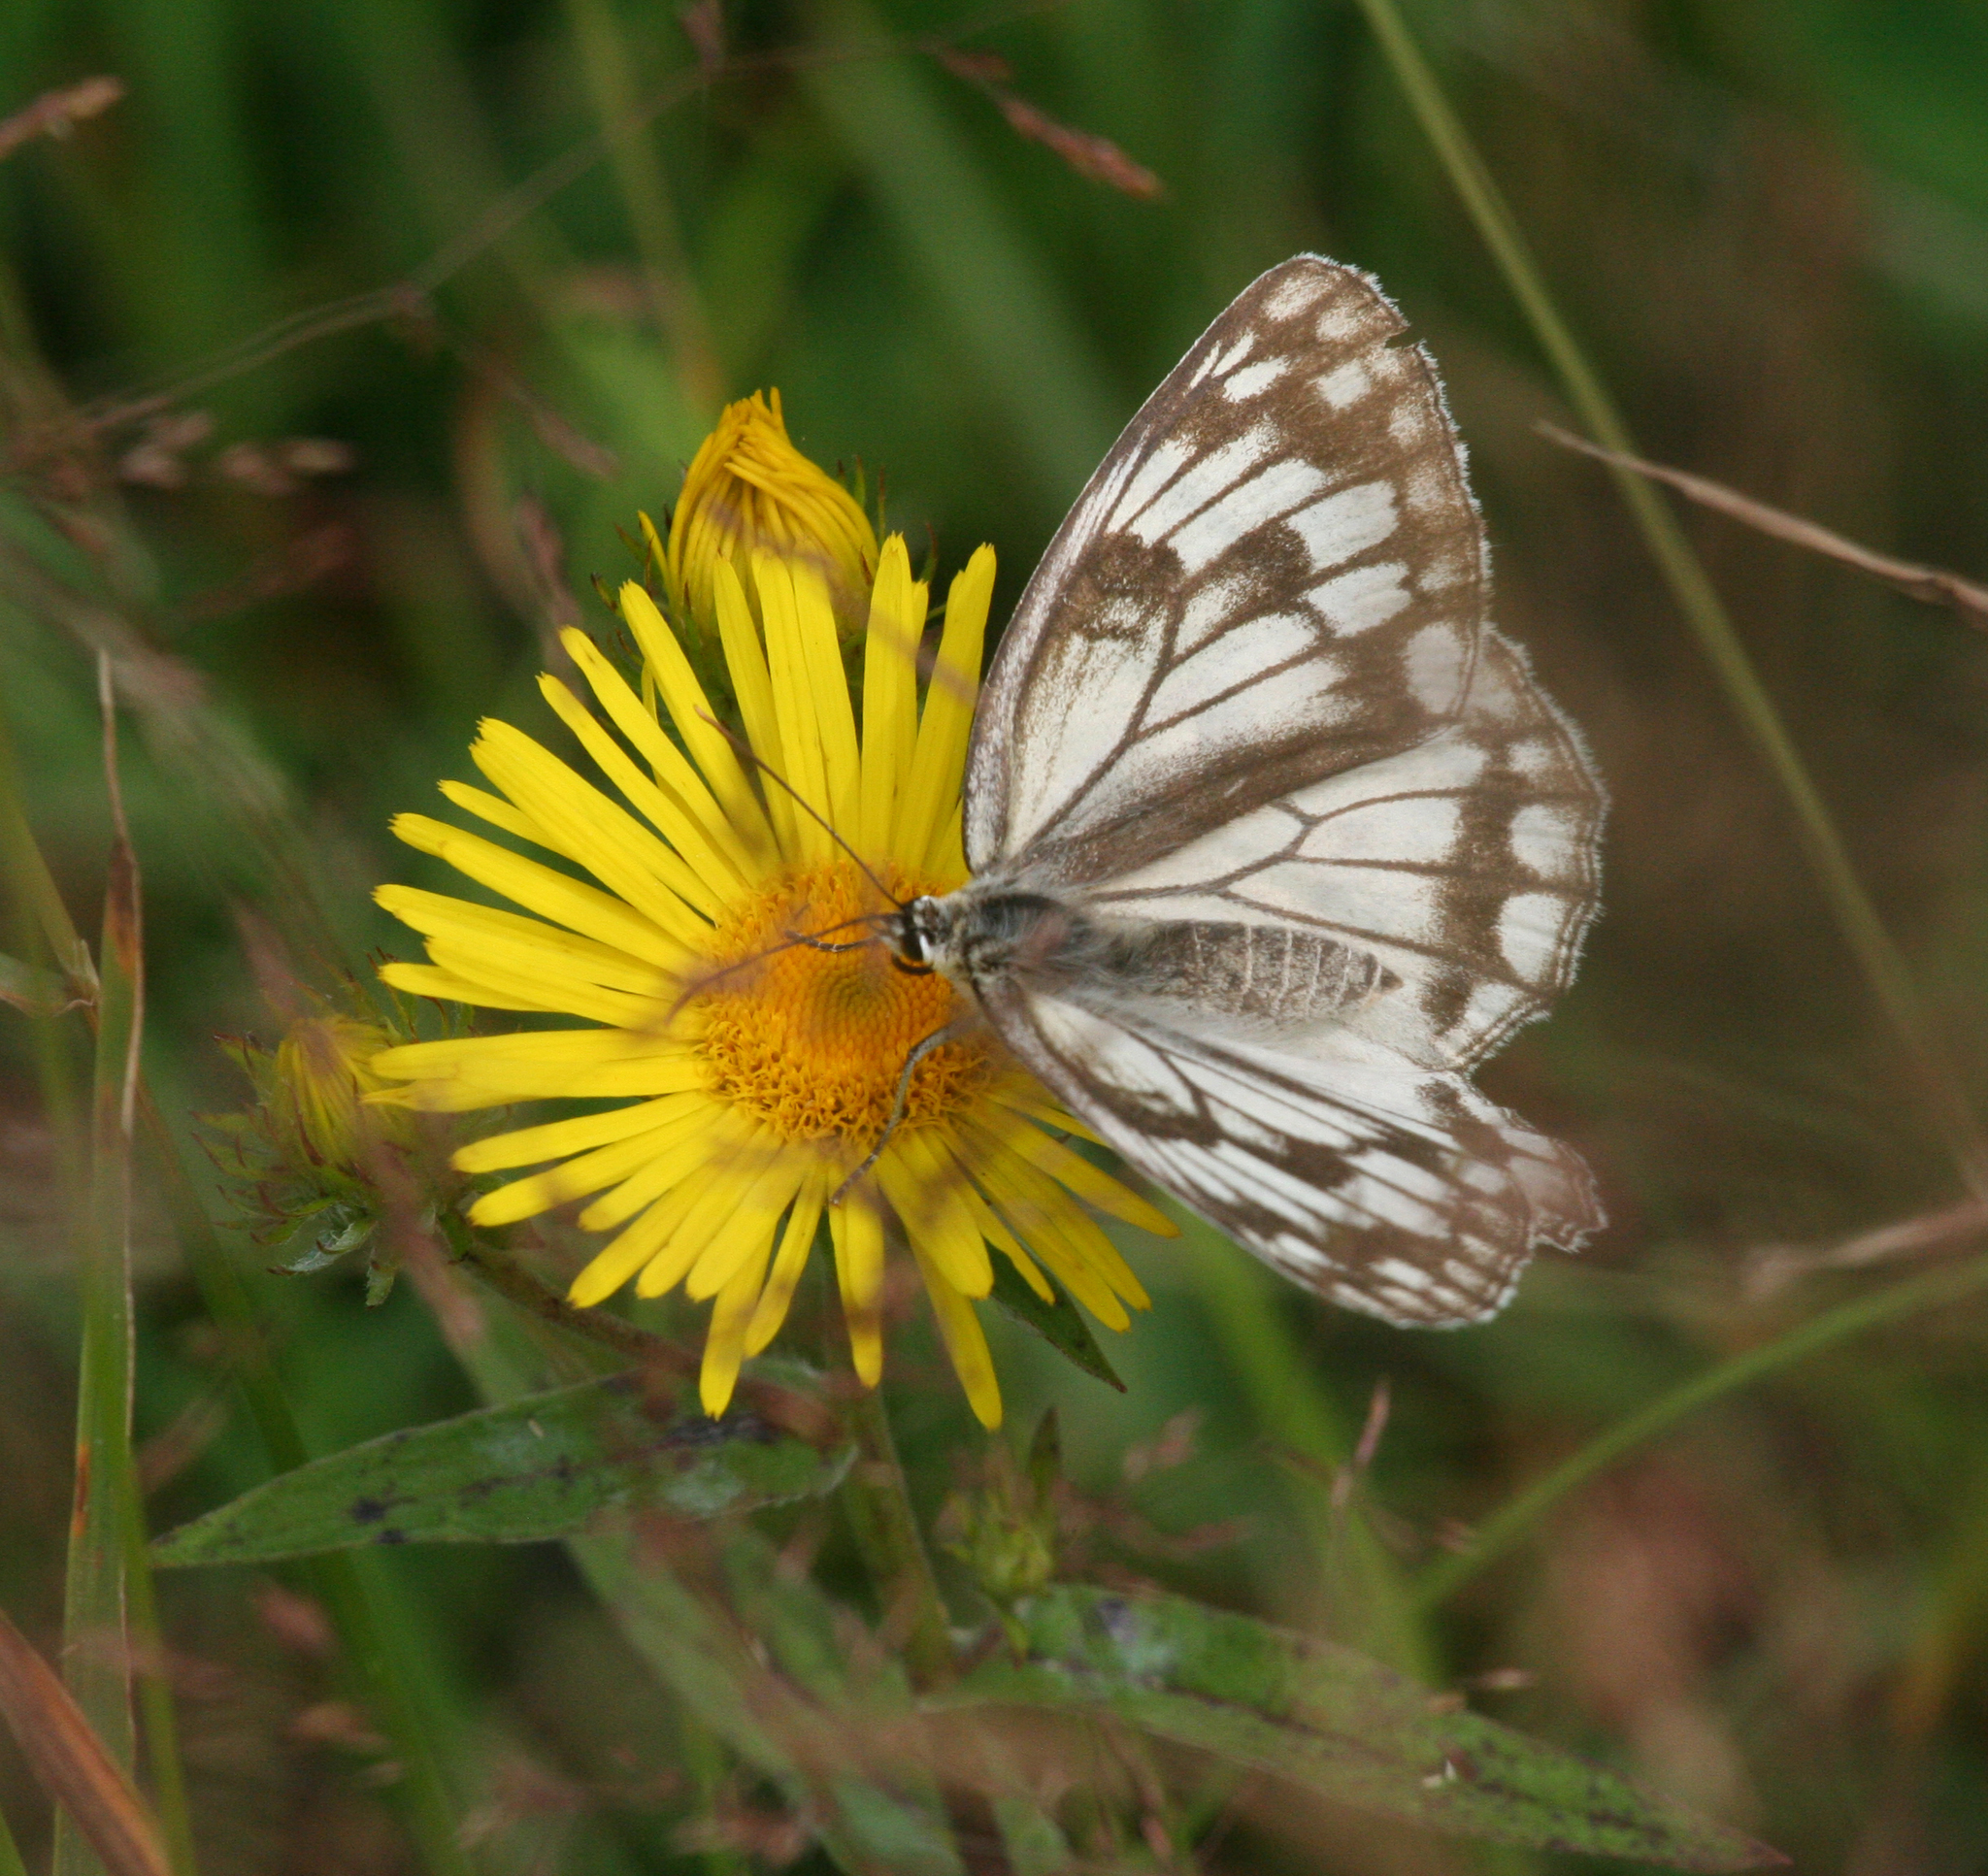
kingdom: Animalia
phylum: Arthropoda
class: Insecta
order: Lepidoptera
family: Nymphalidae
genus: Melanargia
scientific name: Melanargia halimede
